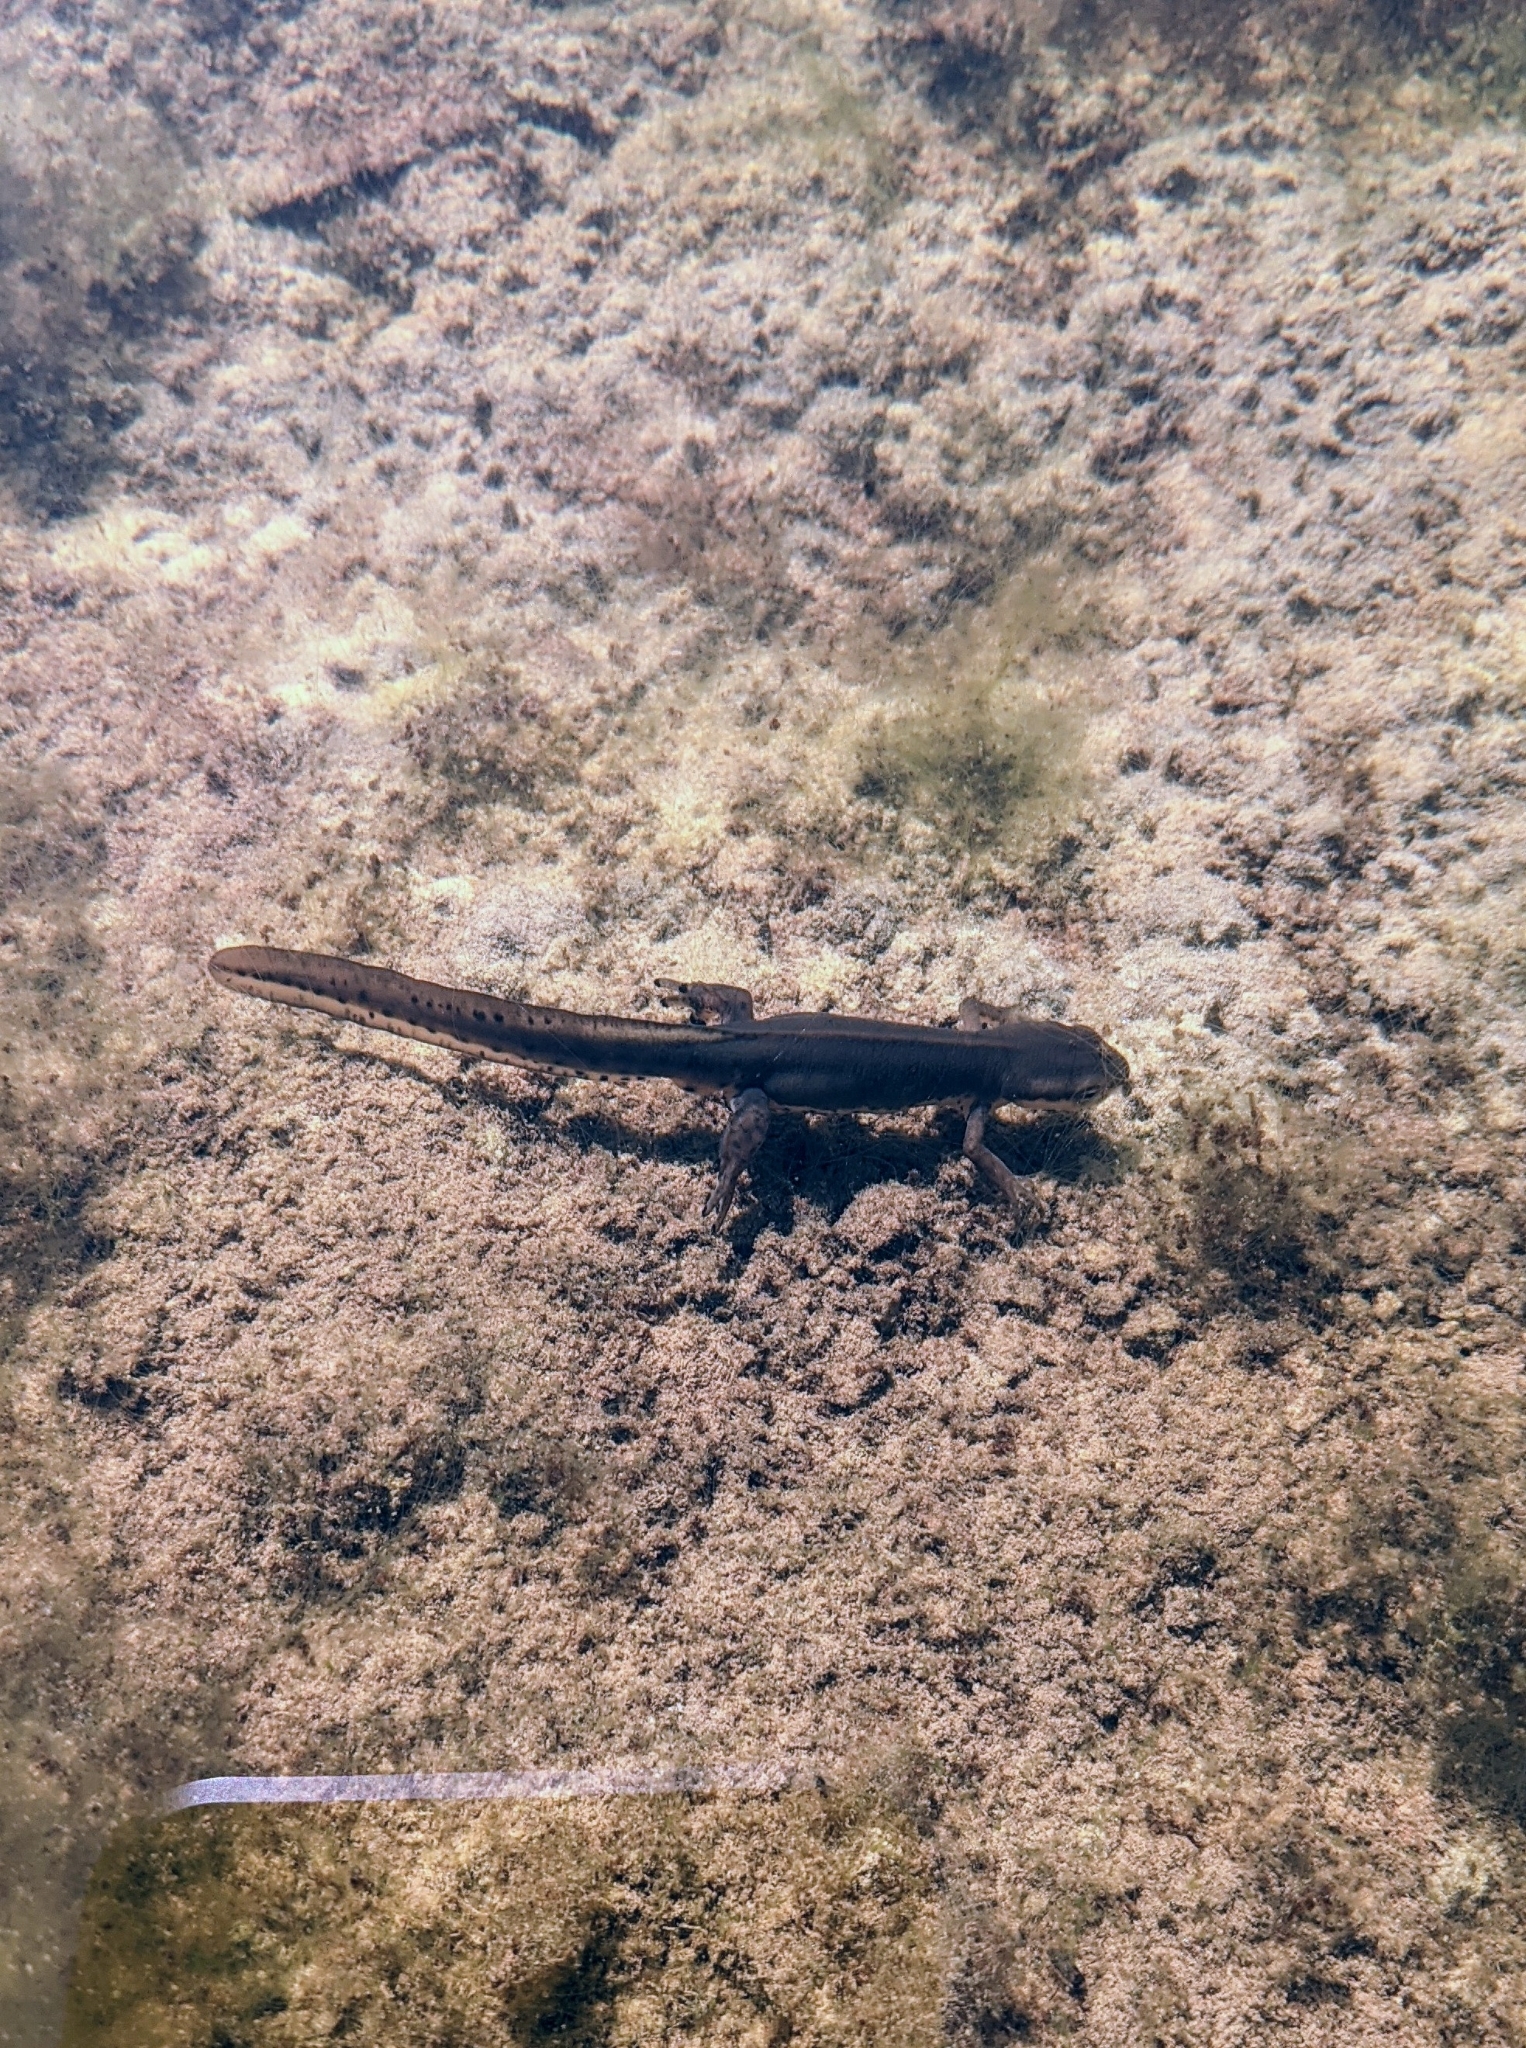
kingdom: Animalia
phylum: Chordata
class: Amphibia
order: Caudata
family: Salamandridae
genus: Notophthalmus
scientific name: Notophthalmus viridescens
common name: Eastern newt
